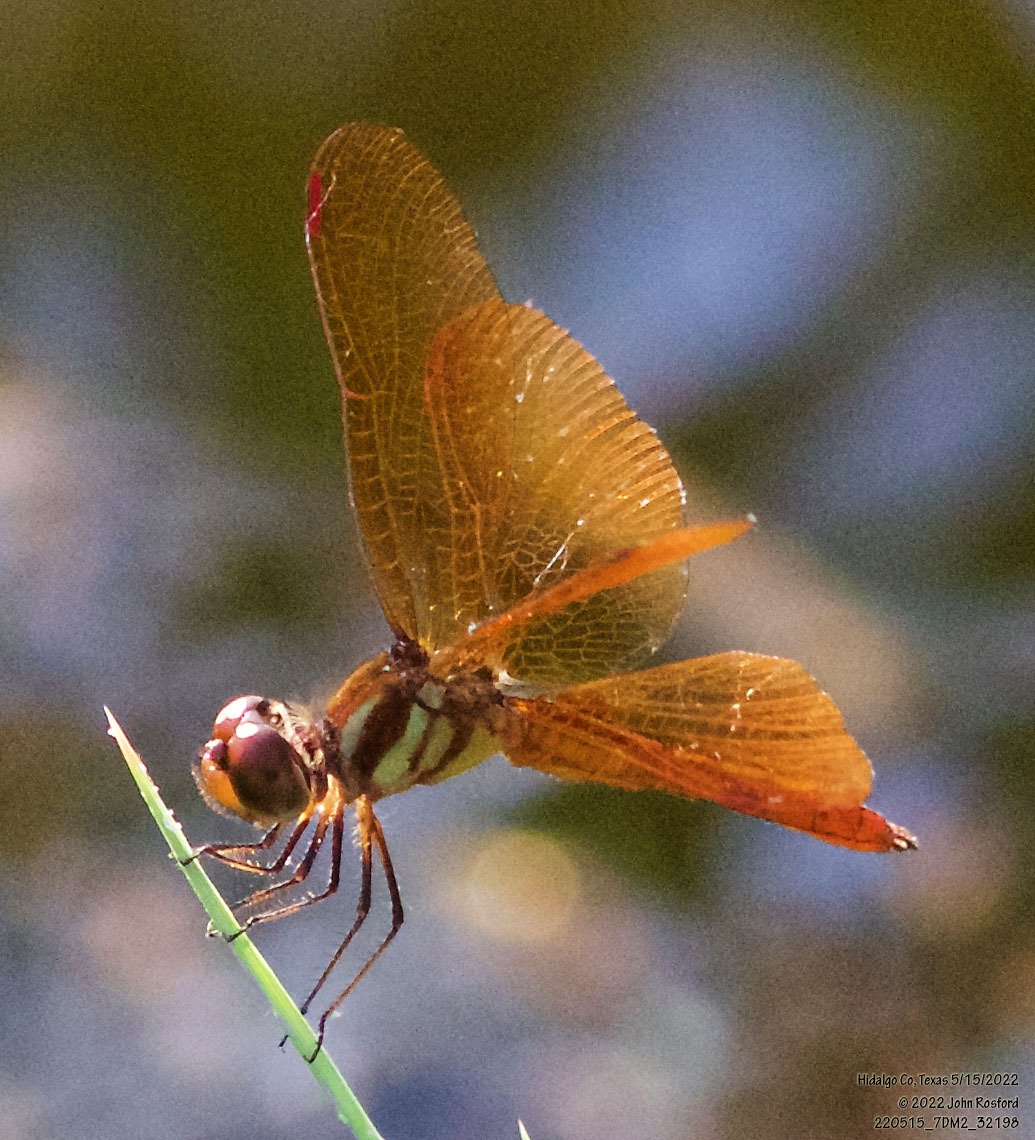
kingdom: Animalia
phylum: Arthropoda
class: Insecta
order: Odonata
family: Libellulidae
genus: Perithemis
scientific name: Perithemis domitia
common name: Slough amberwing
